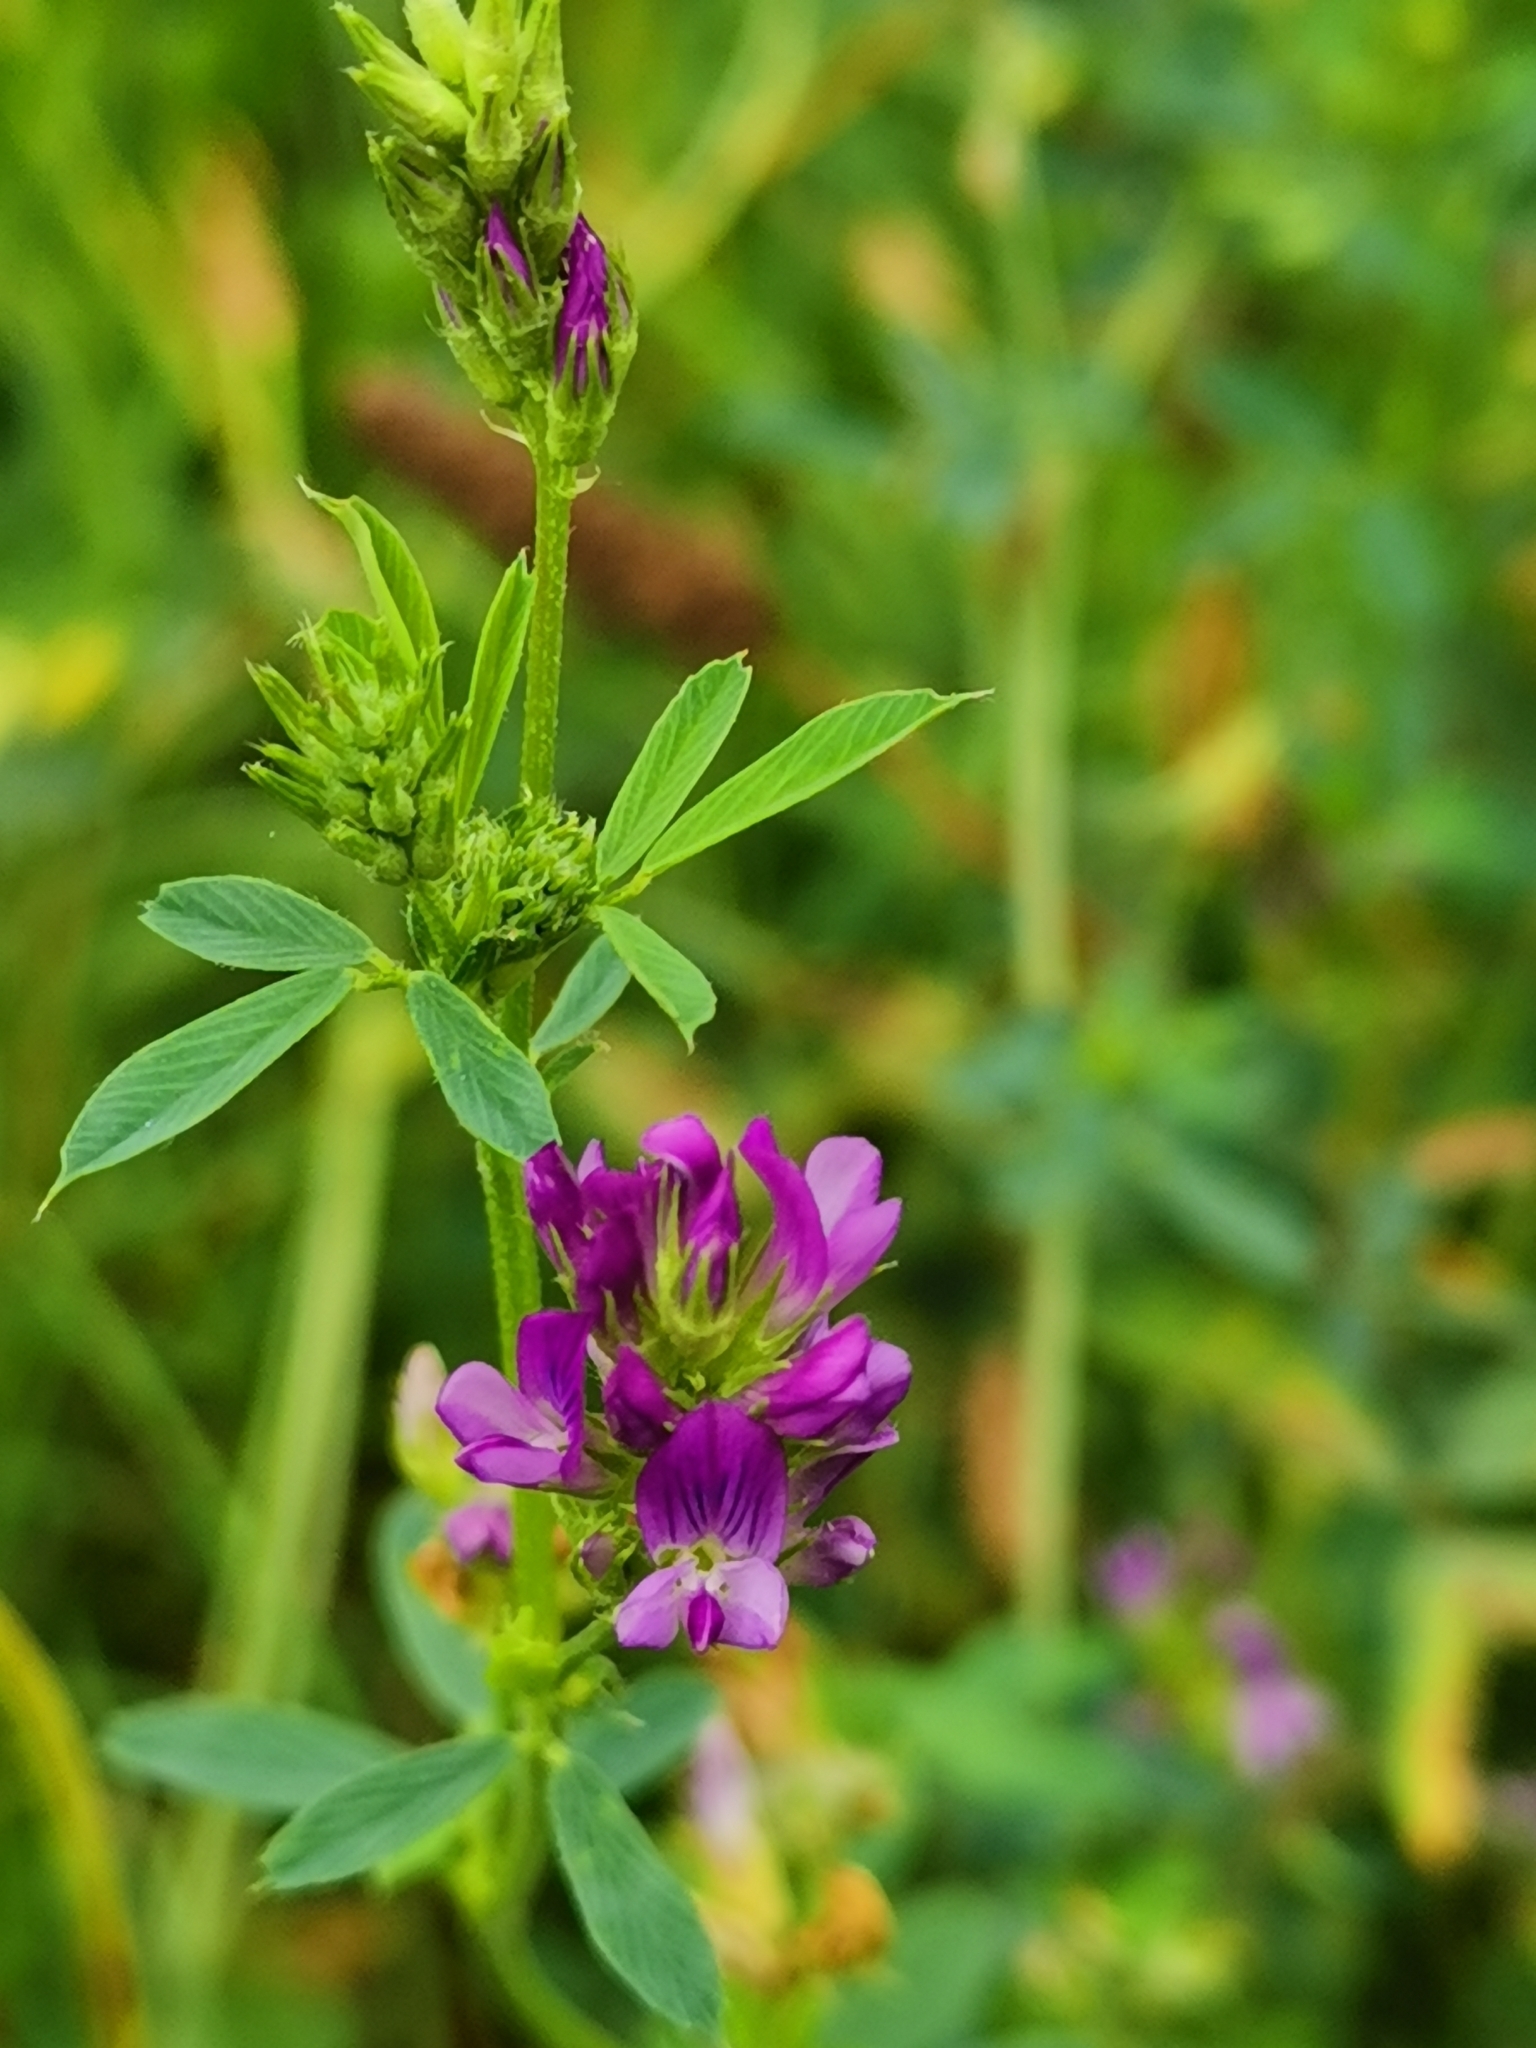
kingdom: Plantae
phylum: Tracheophyta
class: Magnoliopsida
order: Fabales
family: Fabaceae
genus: Medicago
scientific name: Medicago sativa
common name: Alfalfa
